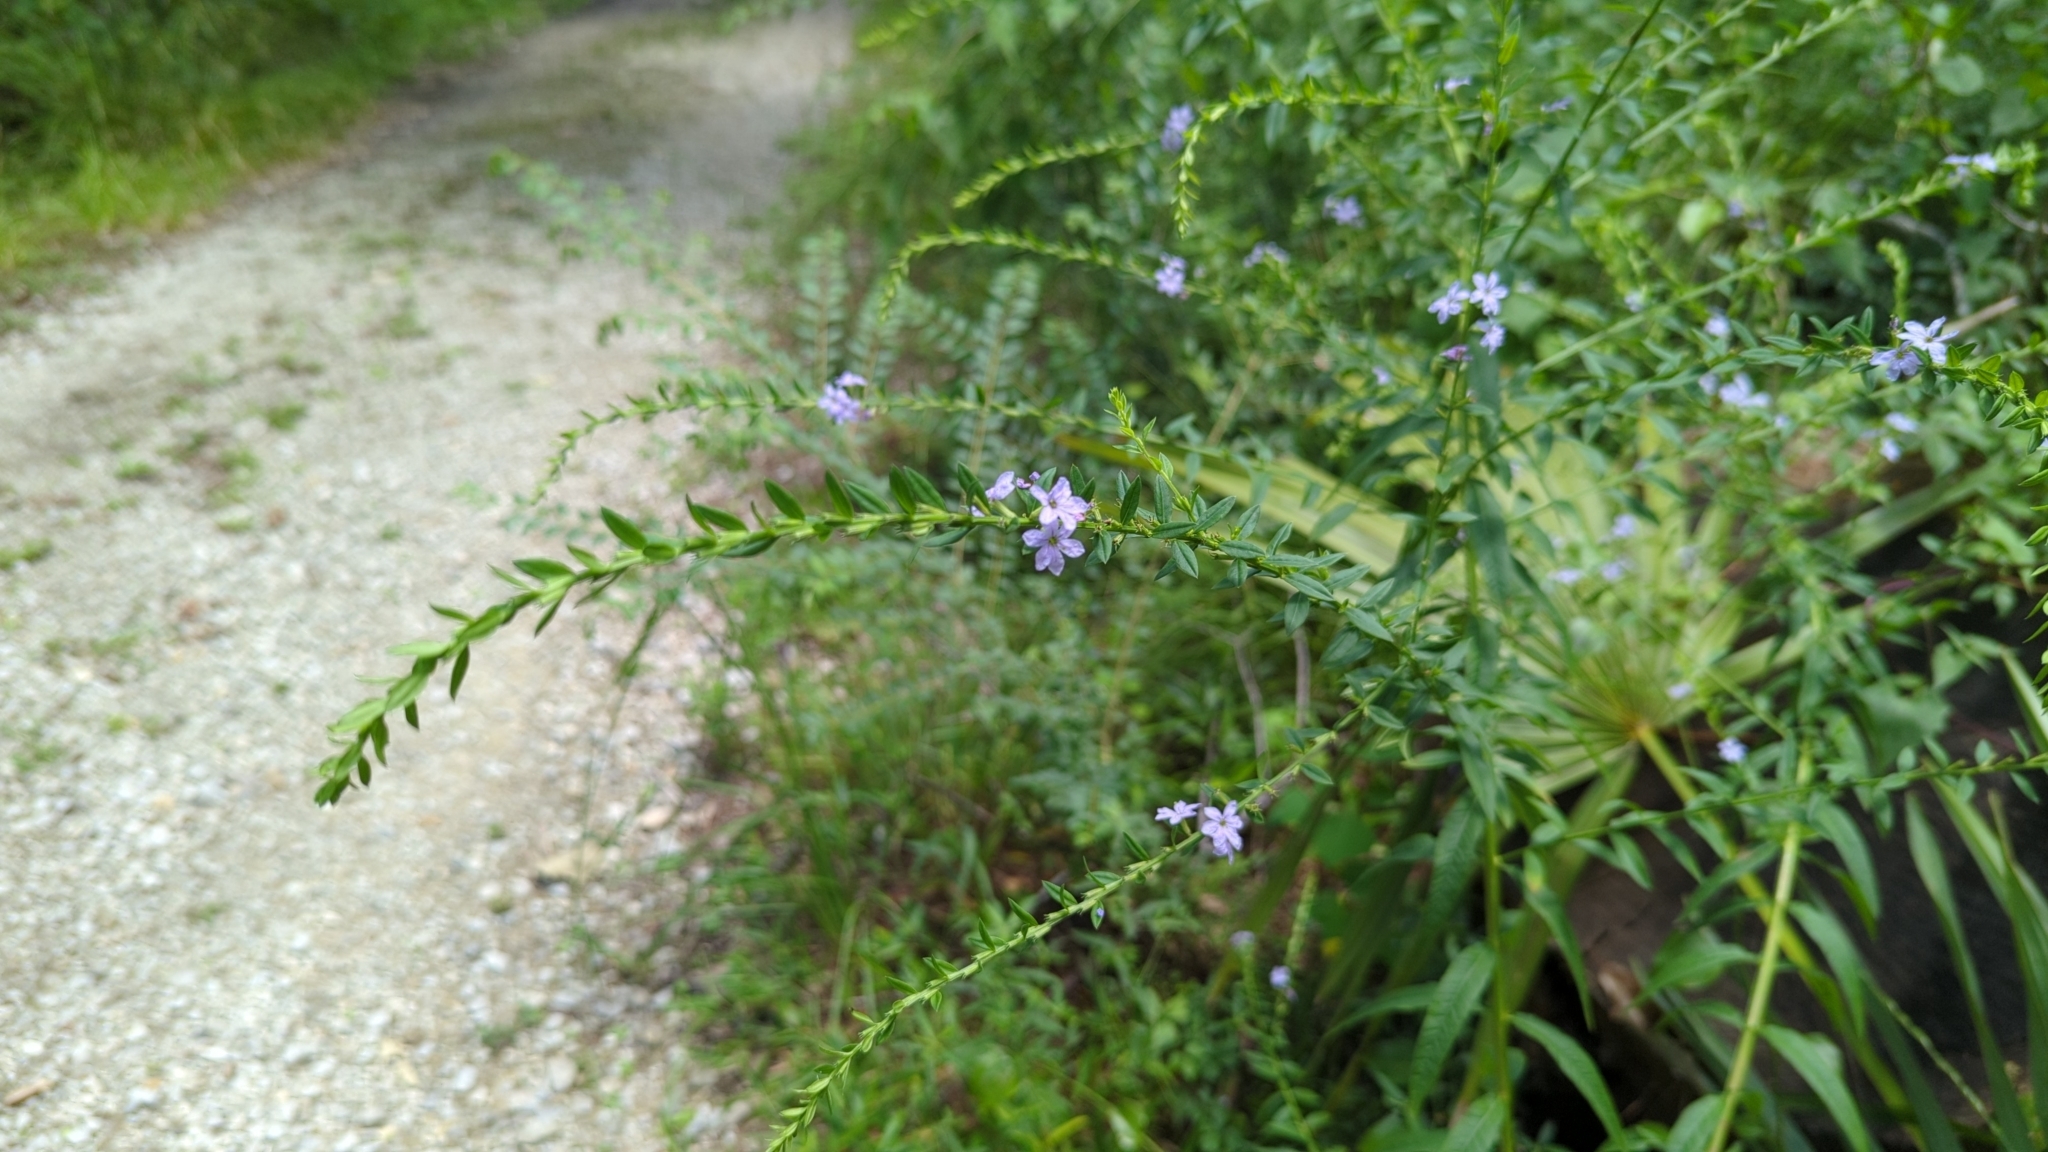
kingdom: Plantae
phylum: Tracheophyta
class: Magnoliopsida
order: Myrtales
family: Lythraceae
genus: Lythrum
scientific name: Lythrum alatum
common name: Winged loosestrife
